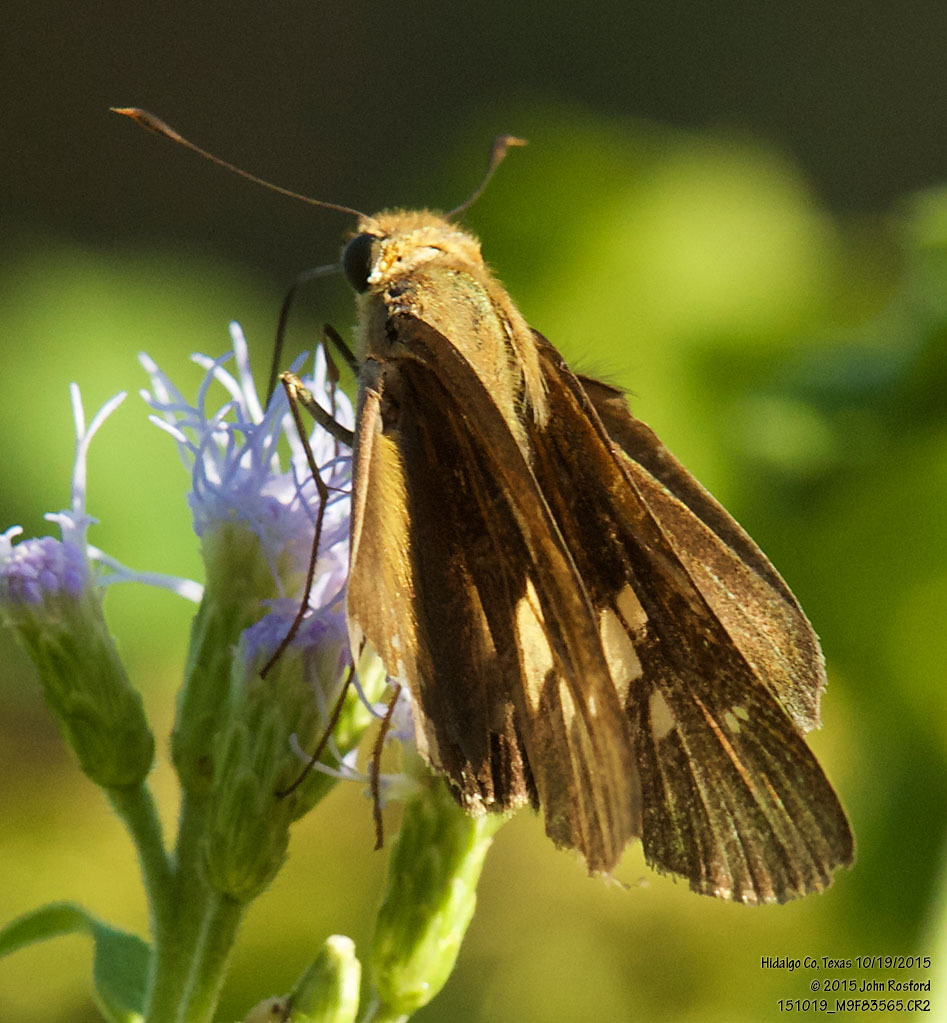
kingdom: Animalia
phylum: Arthropoda
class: Insecta
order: Lepidoptera
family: Hesperiidae
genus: Panoquina
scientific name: Panoquina fusina
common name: Evans' skipper
